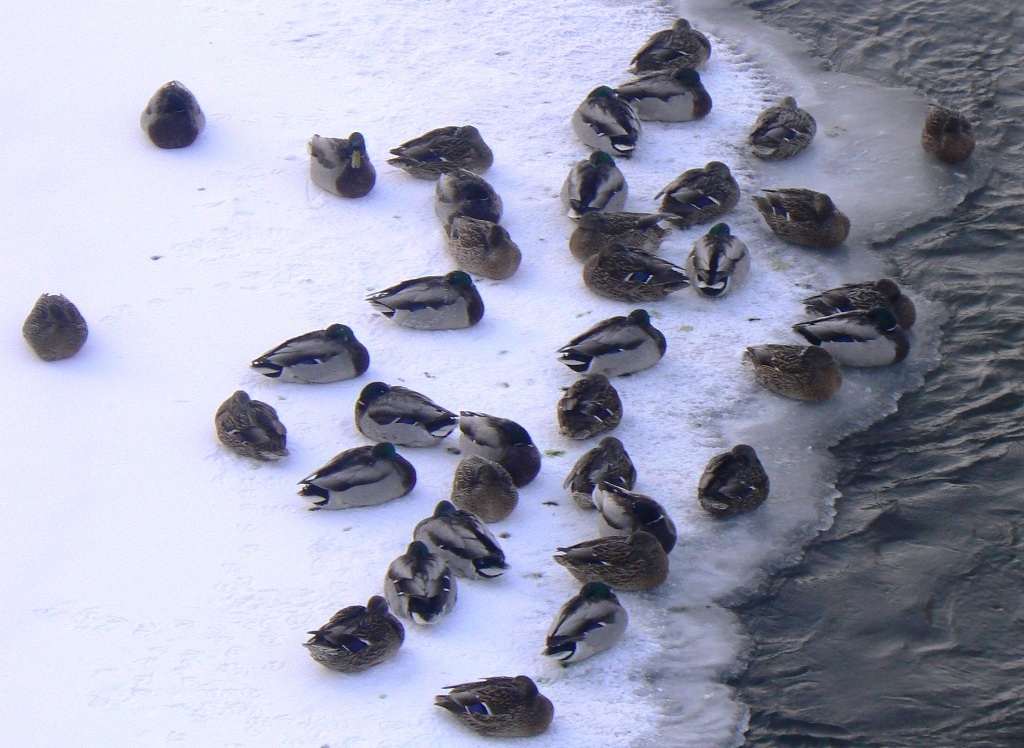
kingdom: Animalia
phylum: Chordata
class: Aves
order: Anseriformes
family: Anatidae
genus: Anas
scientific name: Anas platyrhynchos
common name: Mallard
